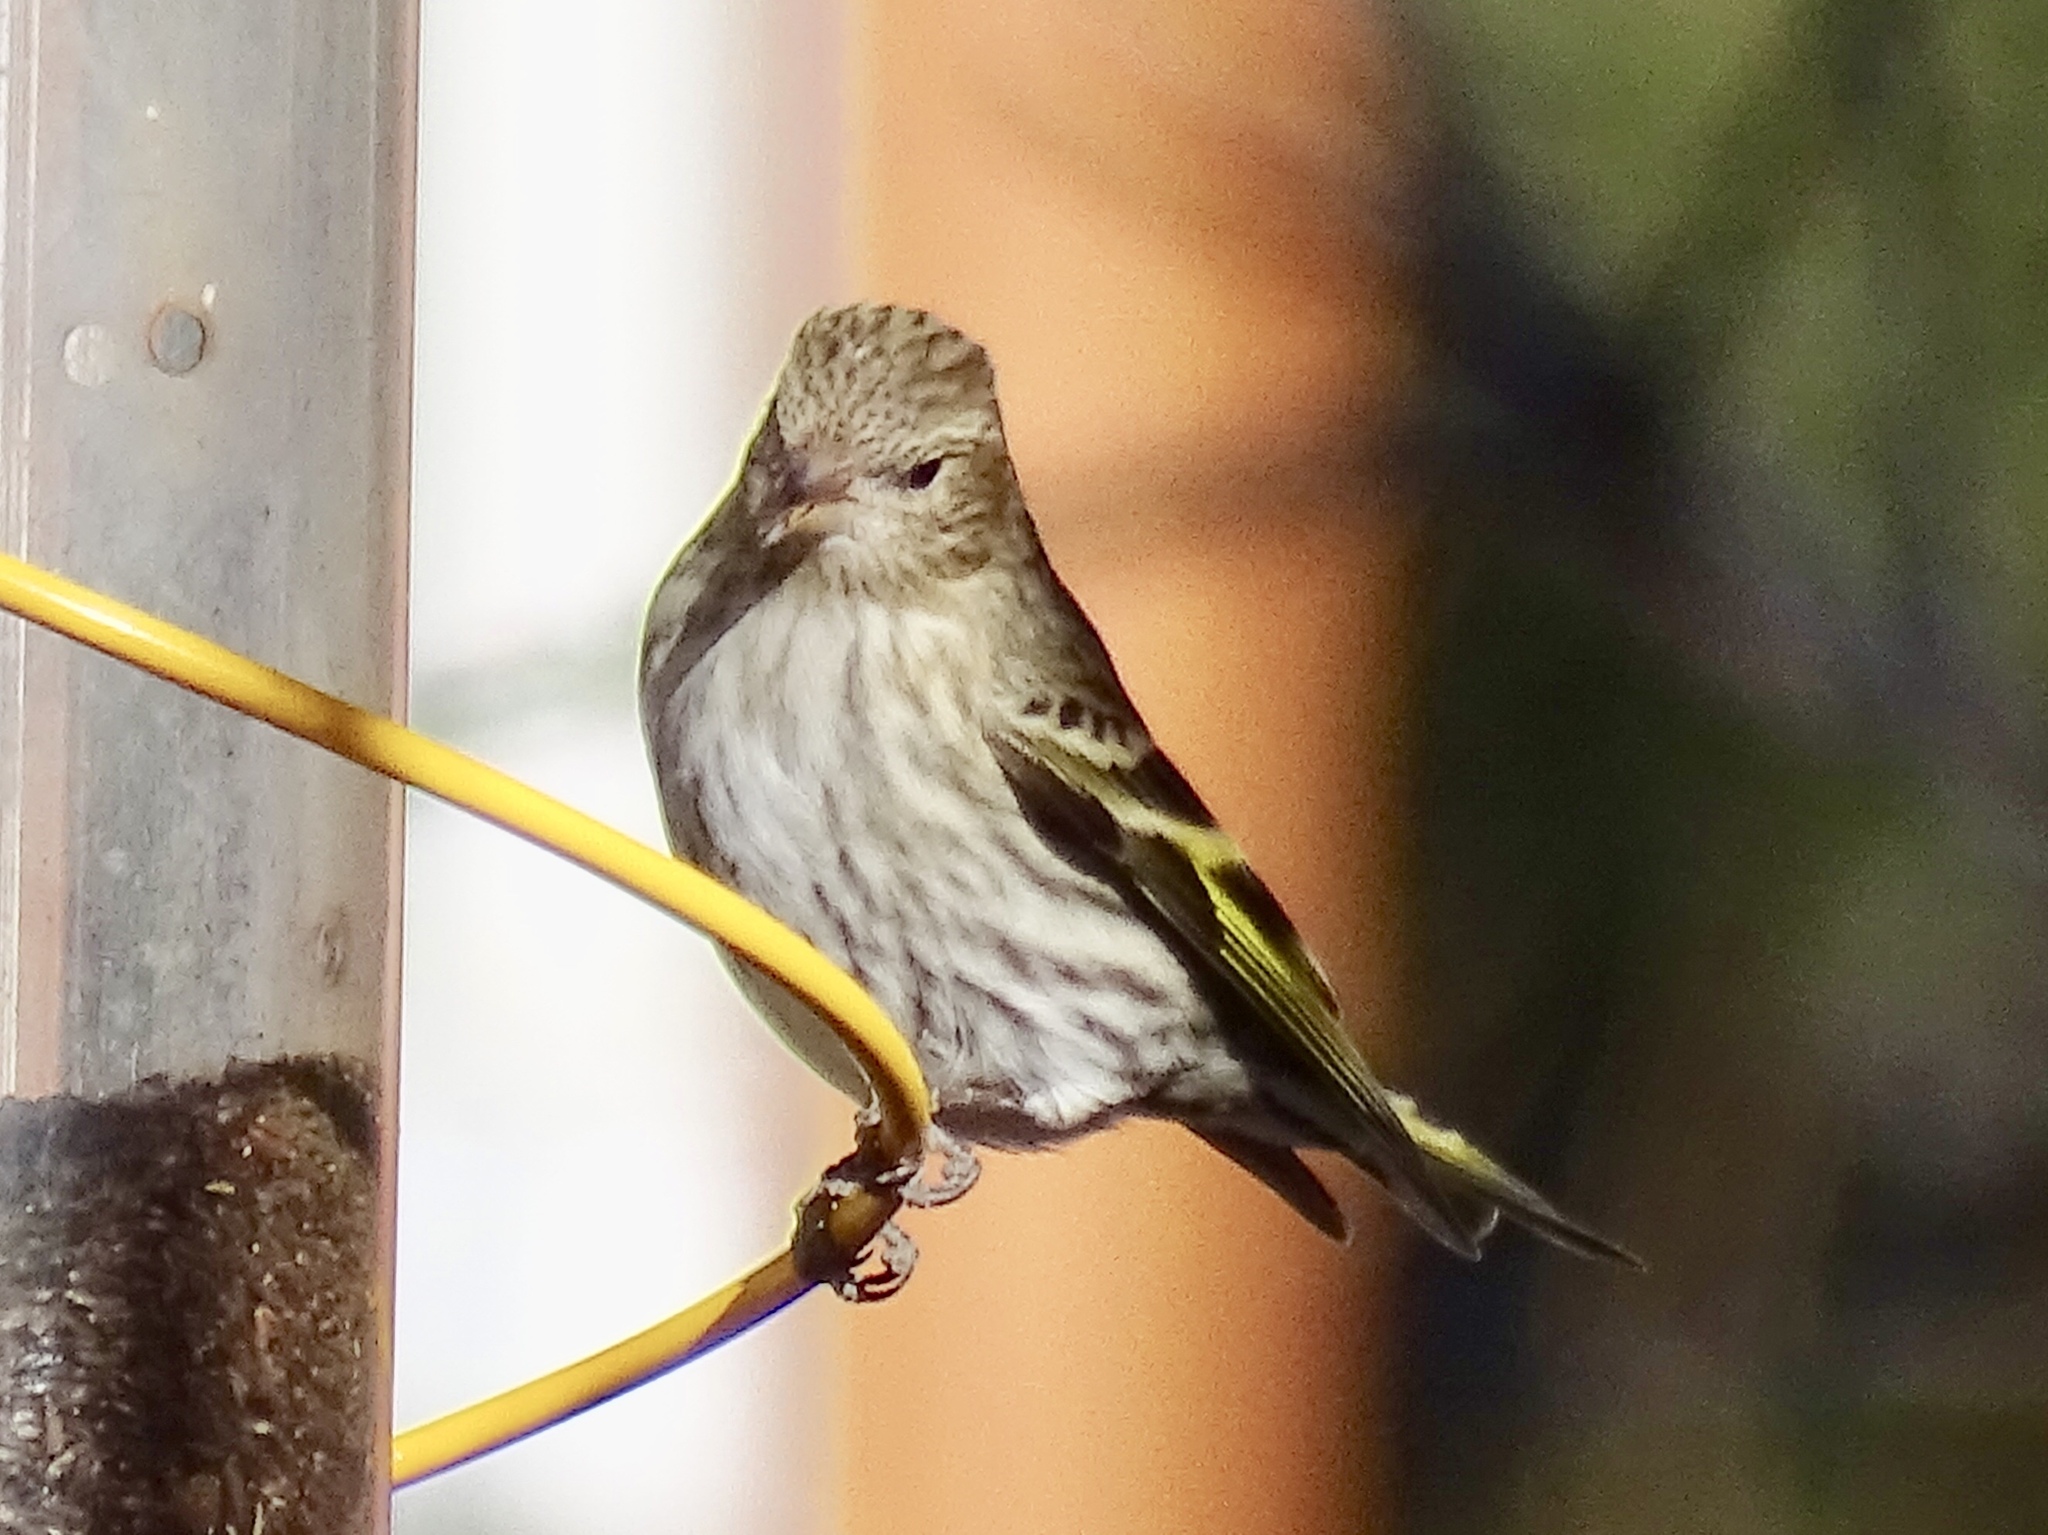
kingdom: Animalia
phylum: Chordata
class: Aves
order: Passeriformes
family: Fringillidae
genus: Spinus
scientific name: Spinus pinus
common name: Pine siskin
